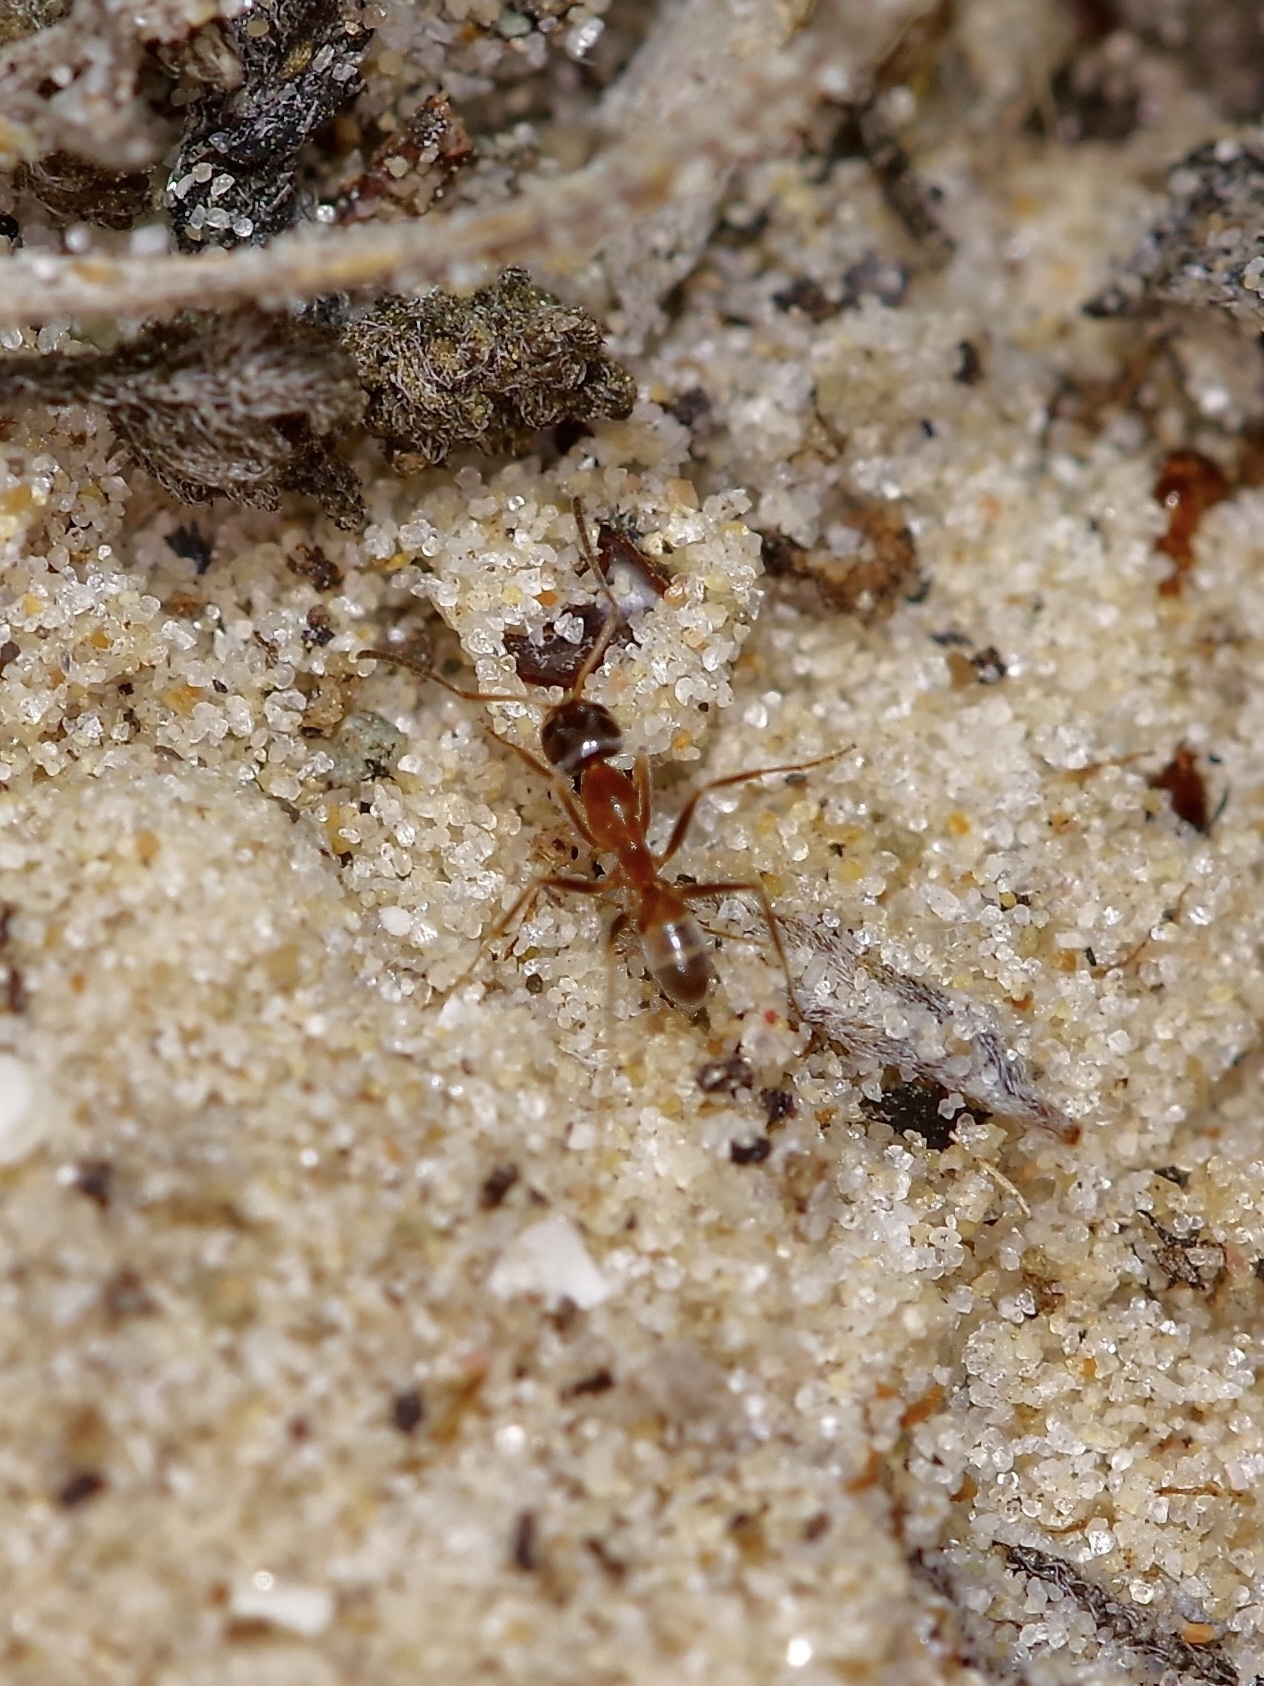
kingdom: Animalia
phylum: Arthropoda
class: Insecta
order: Hymenoptera
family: Formicidae
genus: Dorymyrmex
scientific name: Dorymyrmex flavus
